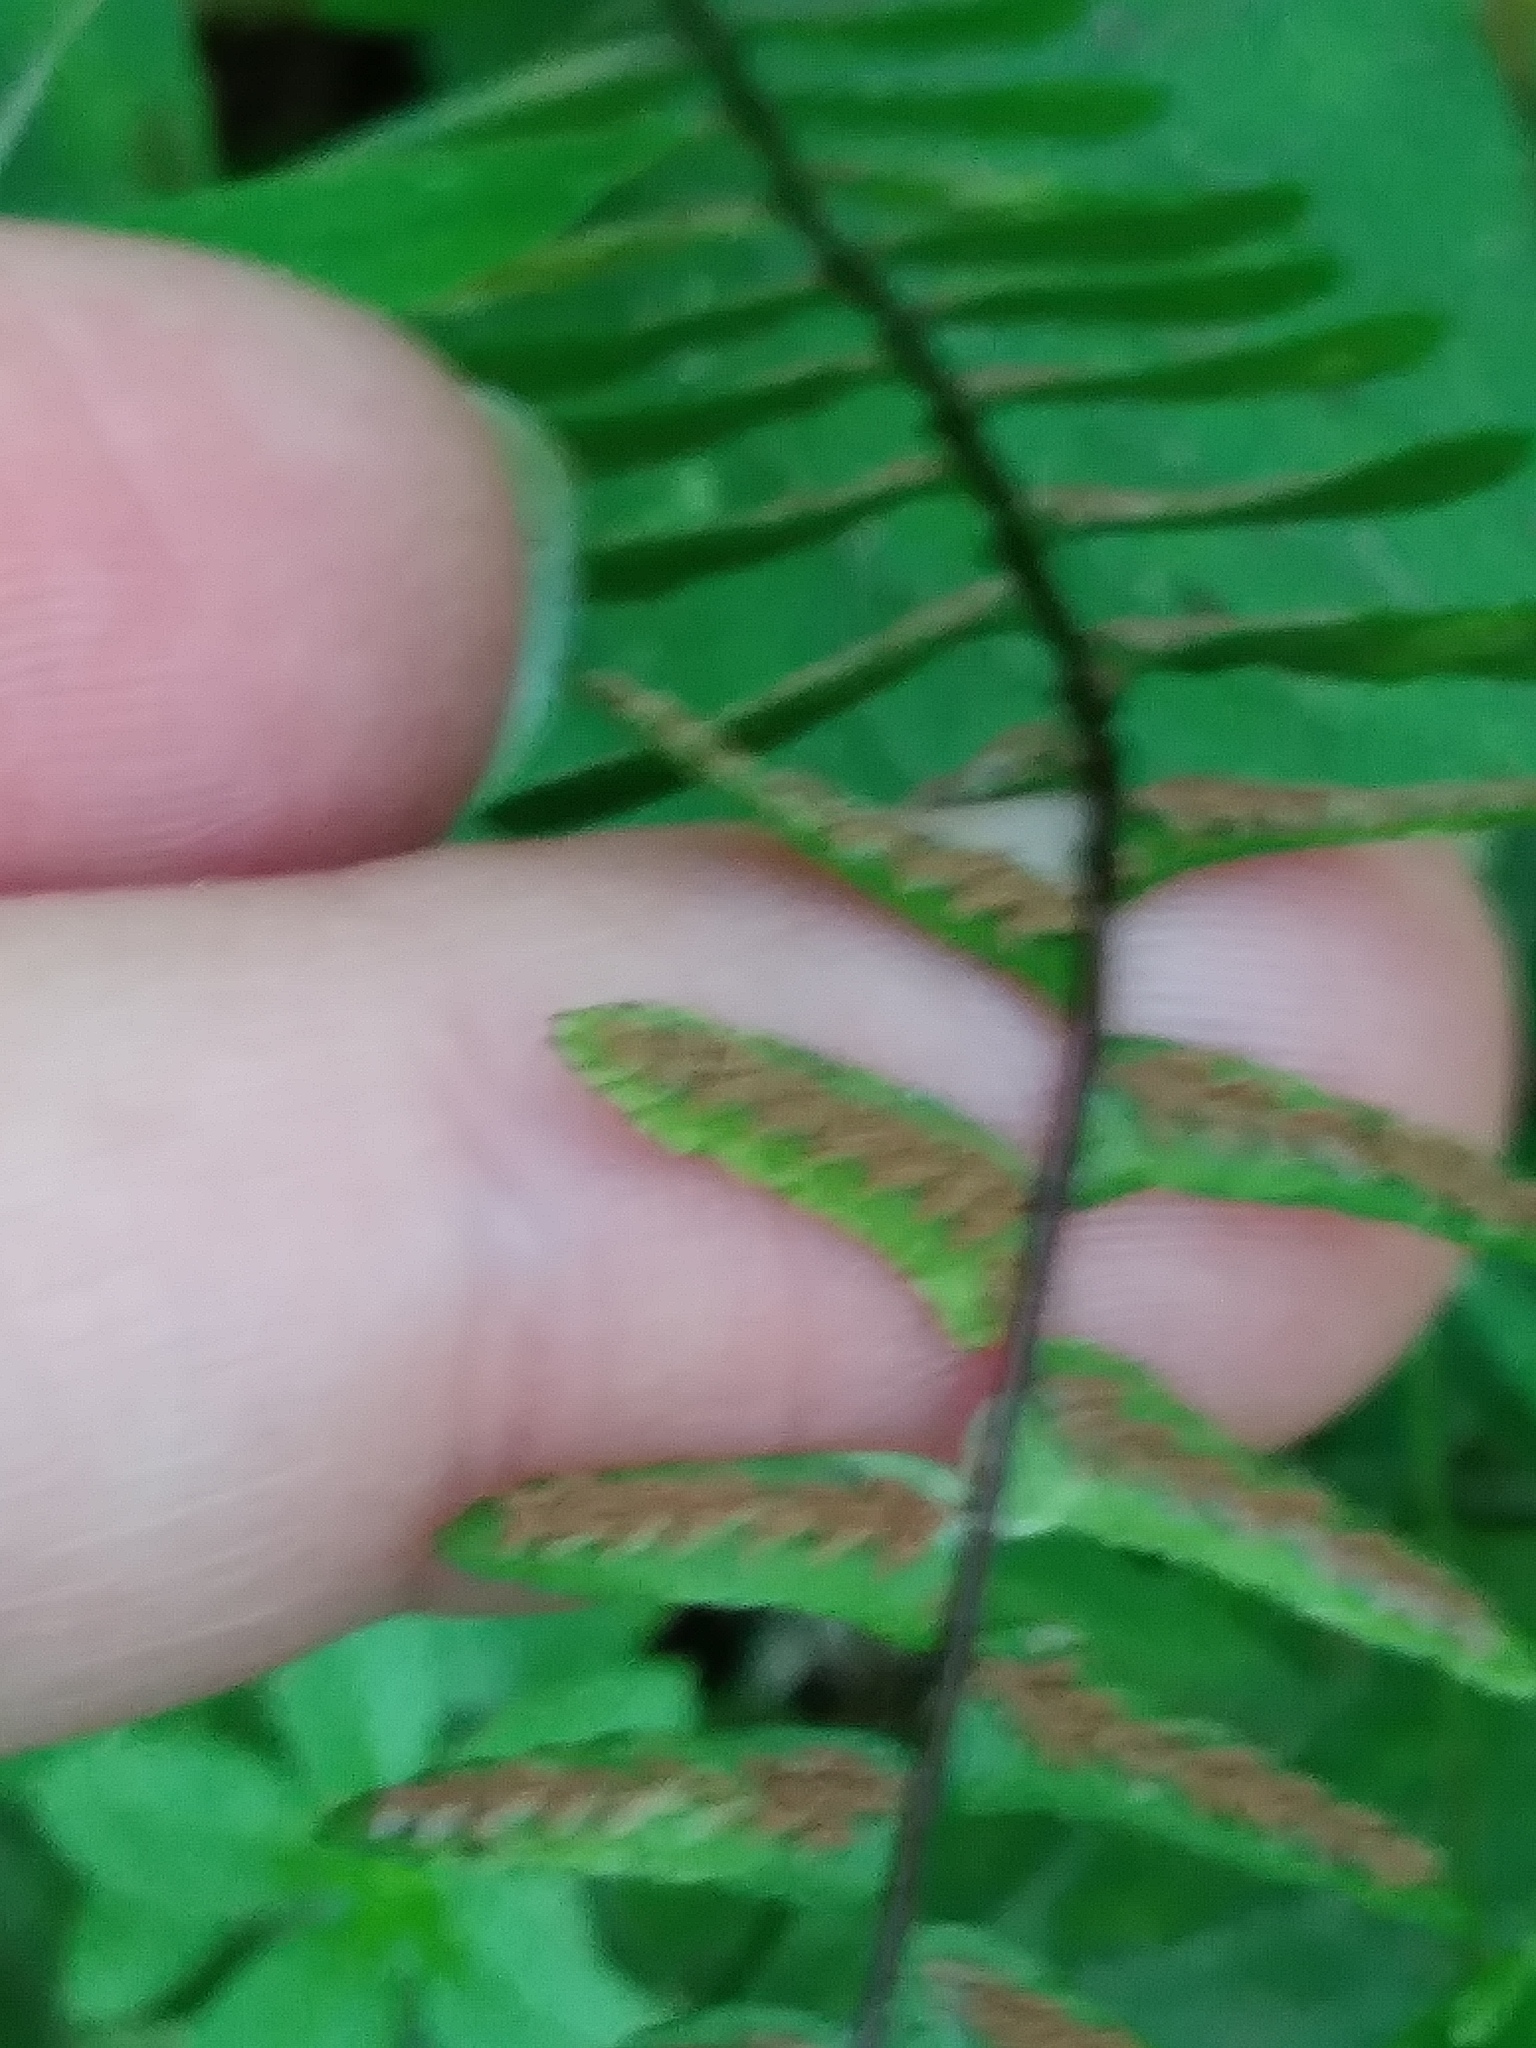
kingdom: Plantae
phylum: Tracheophyta
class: Polypodiopsida
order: Polypodiales
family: Aspleniaceae
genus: Asplenium
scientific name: Asplenium platyneuron
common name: Ebony spleenwort
